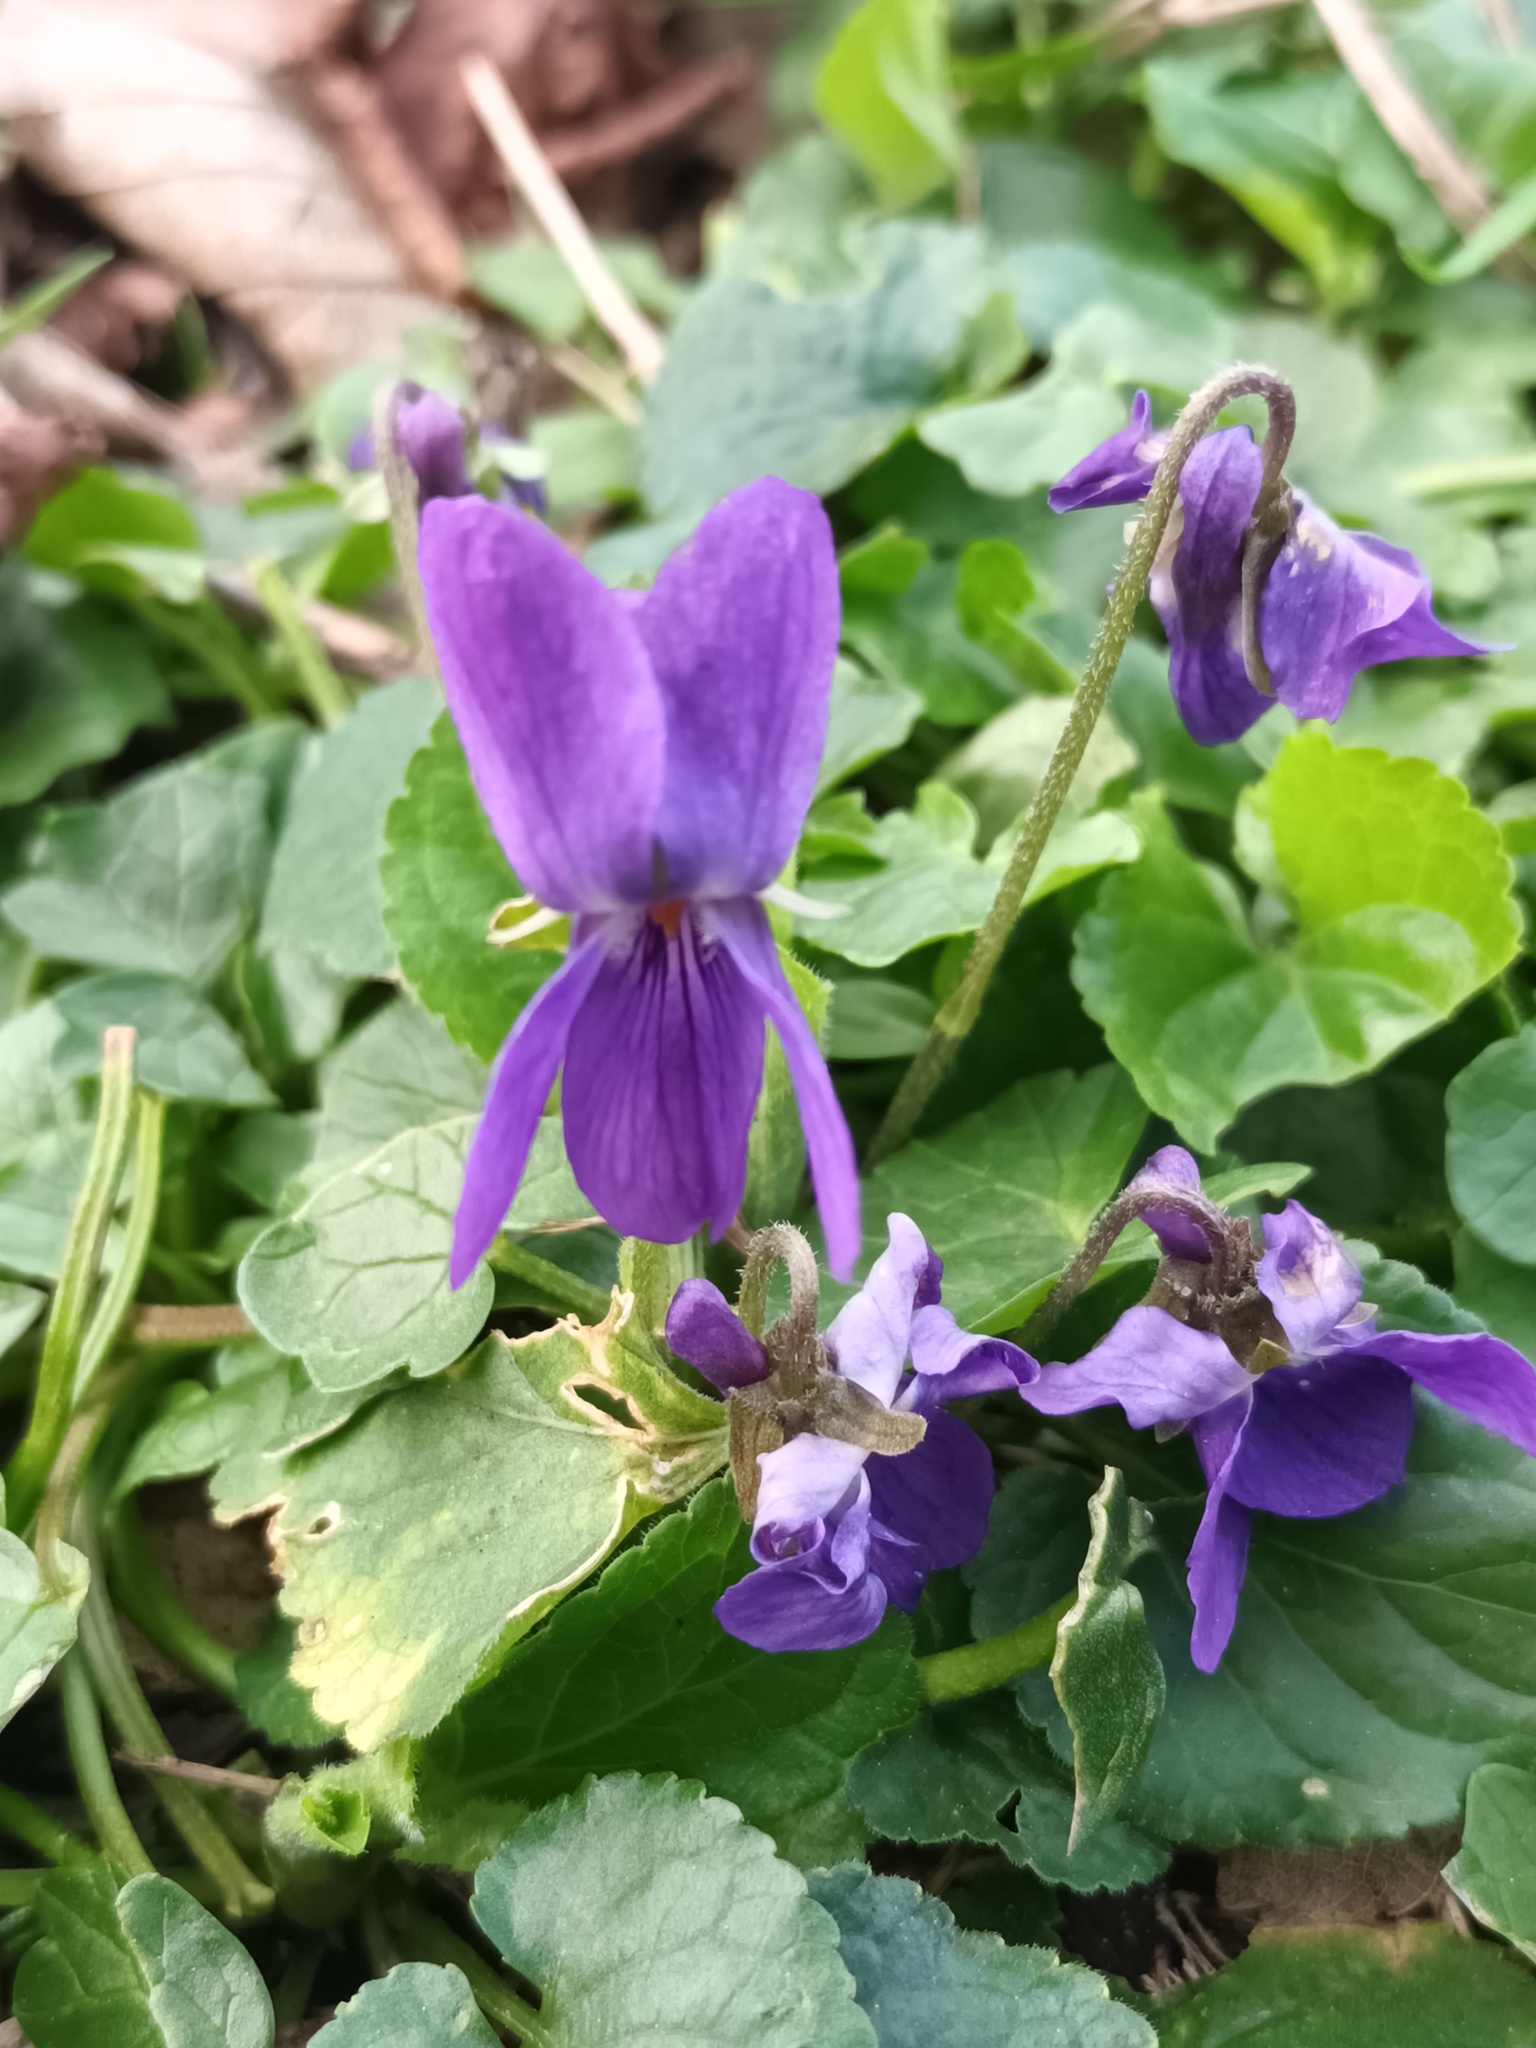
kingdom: Plantae
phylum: Tracheophyta
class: Magnoliopsida
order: Malpighiales
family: Violaceae
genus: Viola
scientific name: Viola odorata
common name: Sweet violet
